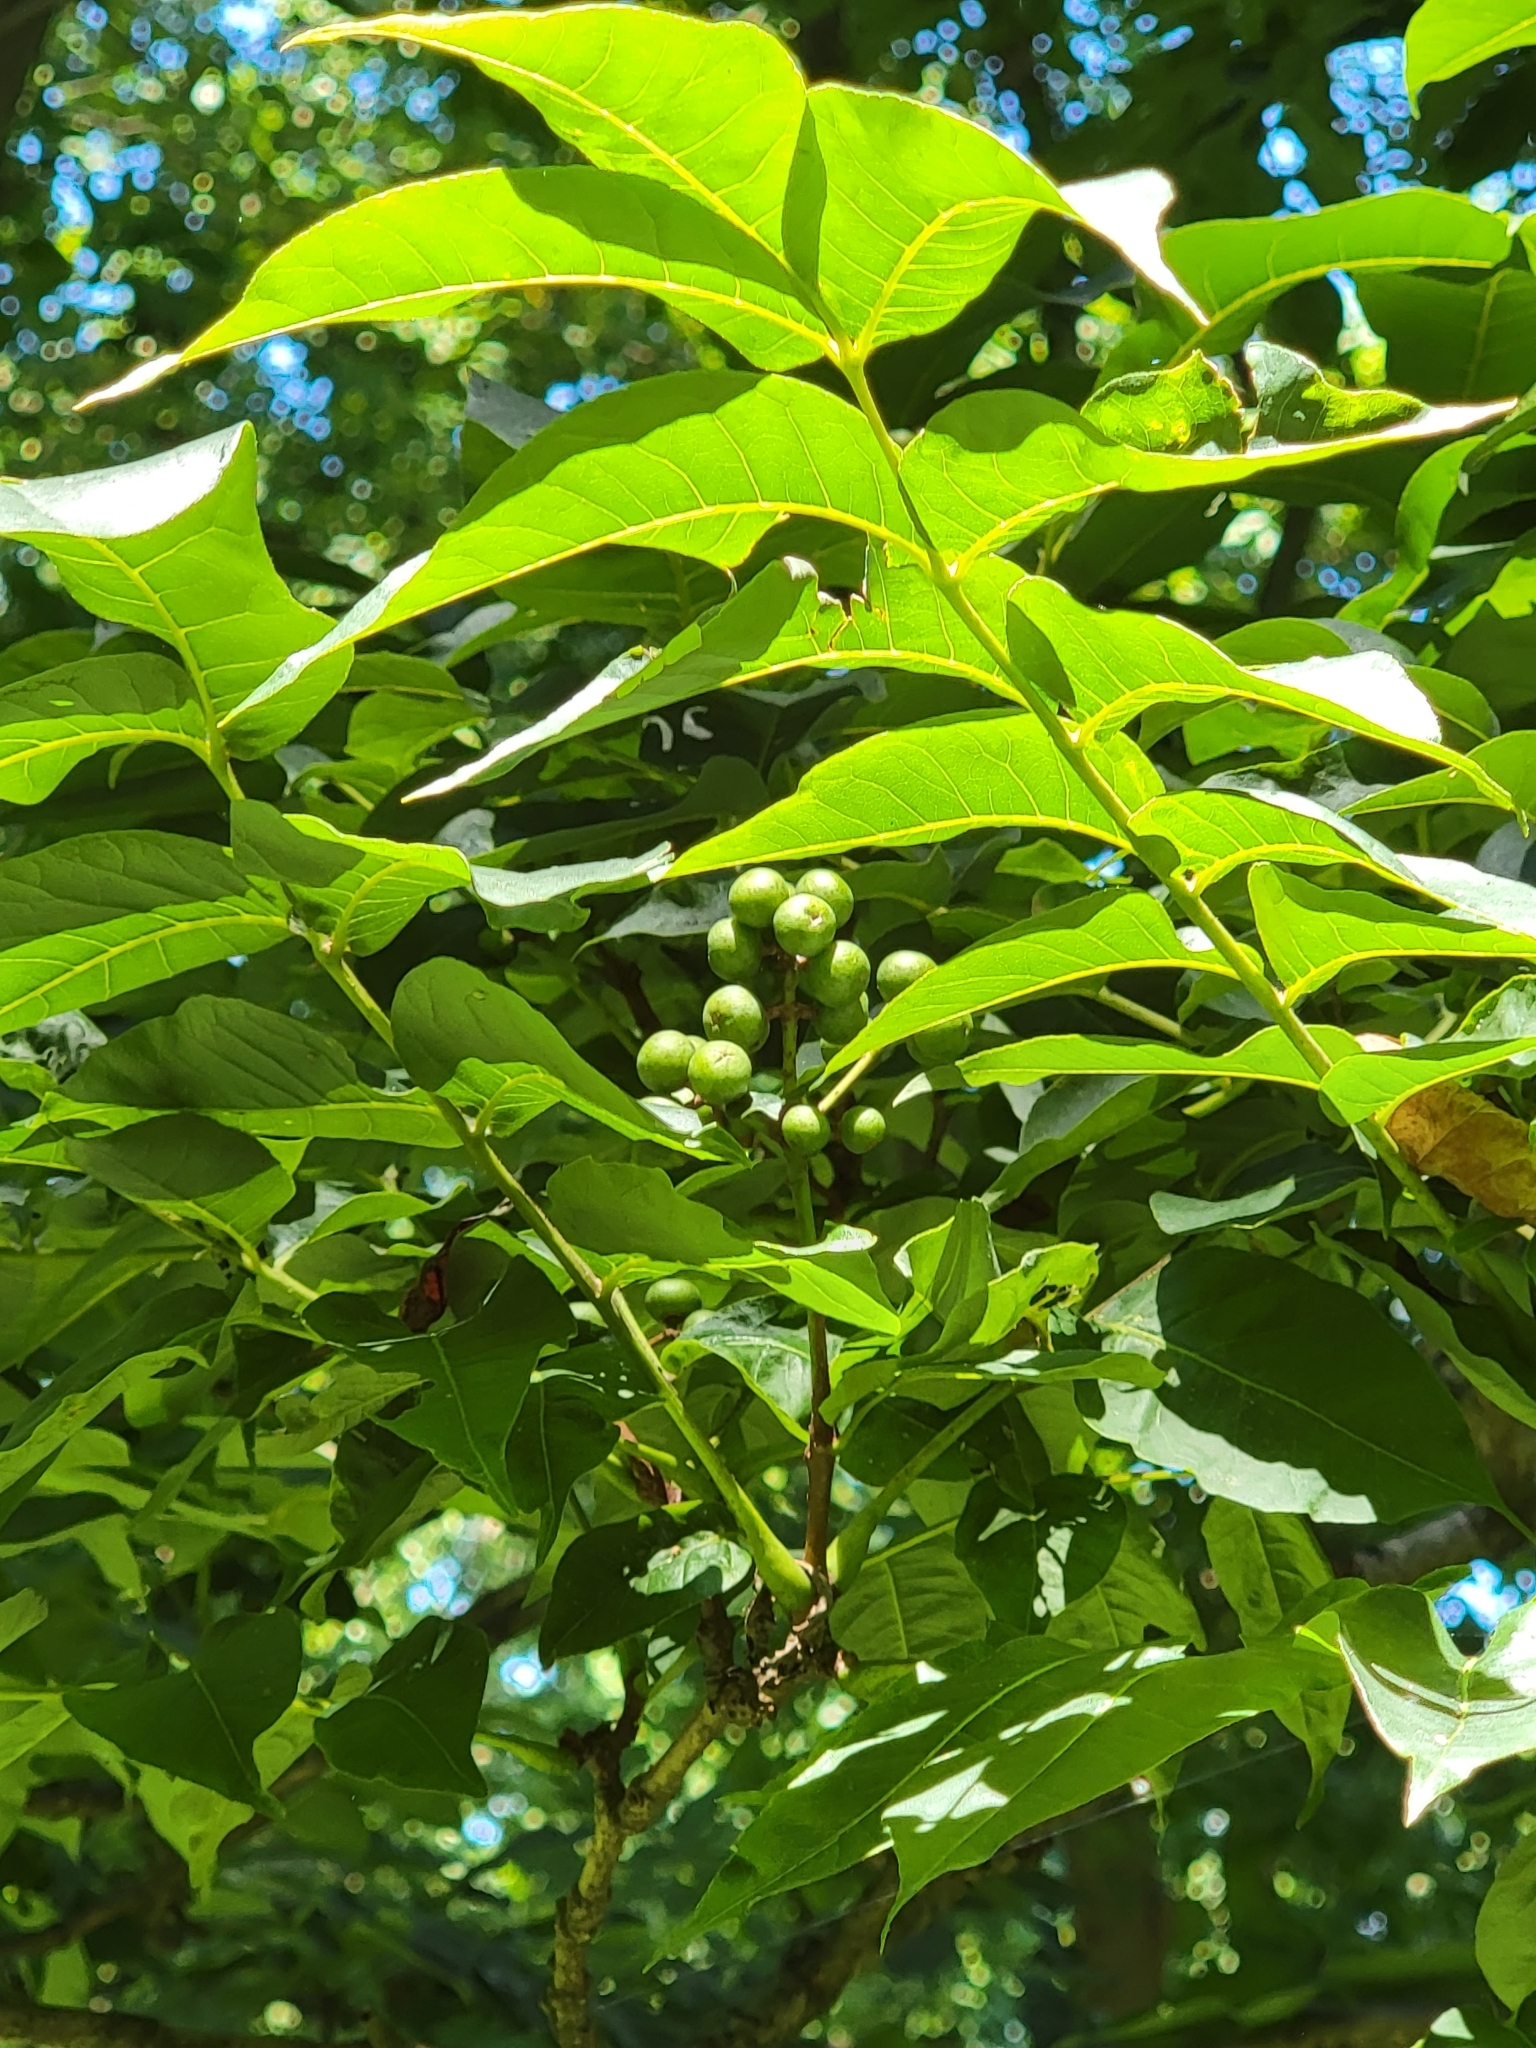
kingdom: Plantae
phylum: Tracheophyta
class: Magnoliopsida
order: Sapindales
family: Rutaceae
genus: Phellodendron
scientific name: Phellodendron amurense
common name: Amur corktree
